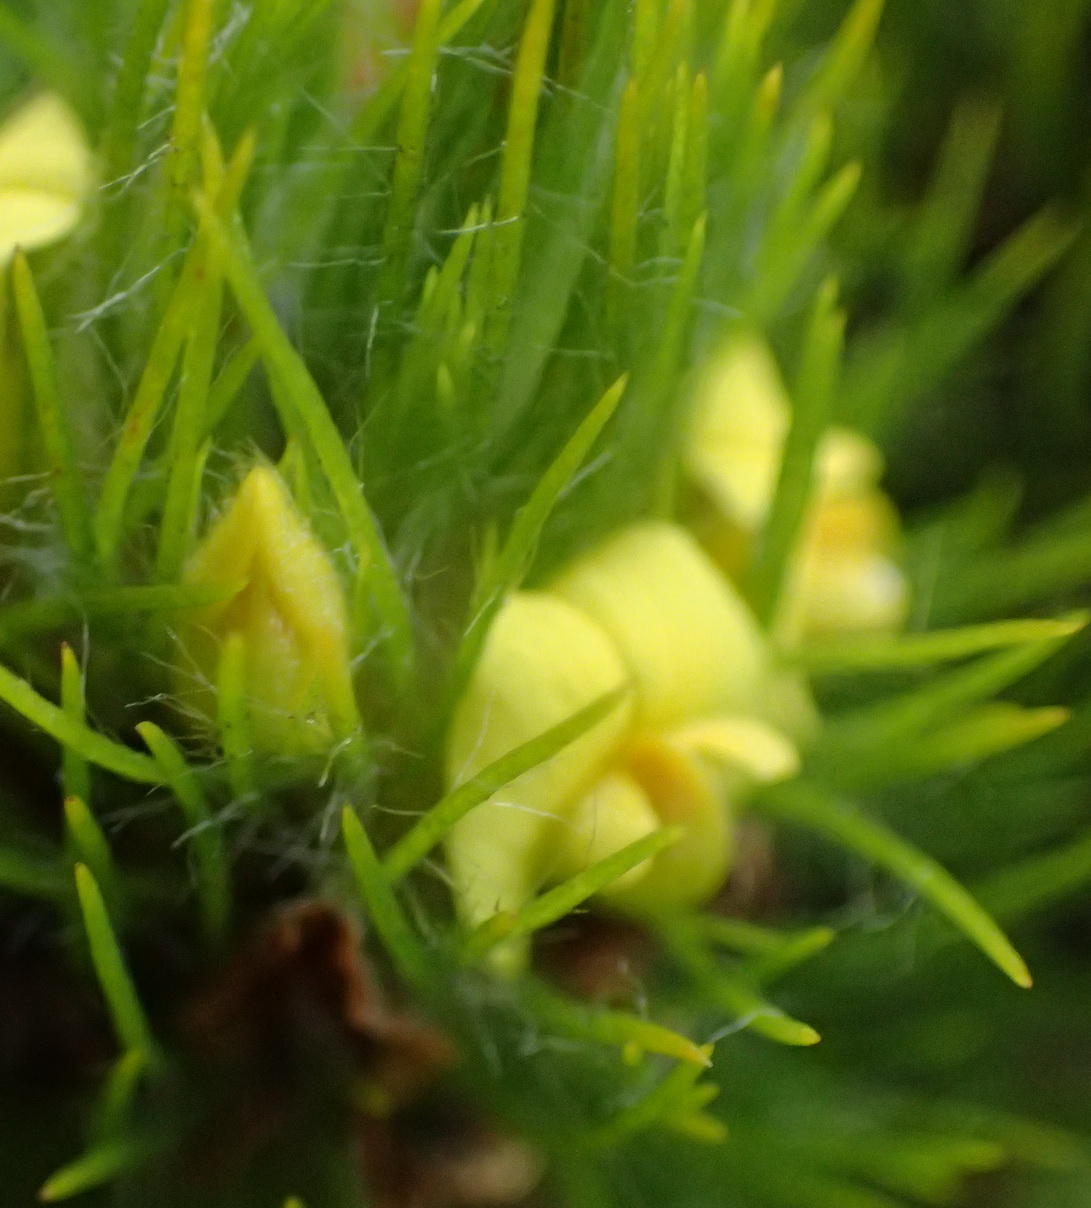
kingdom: Plantae
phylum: Tracheophyta
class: Magnoliopsida
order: Fabales
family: Fabaceae
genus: Aspalathus
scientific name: Aspalathus alopecurus
